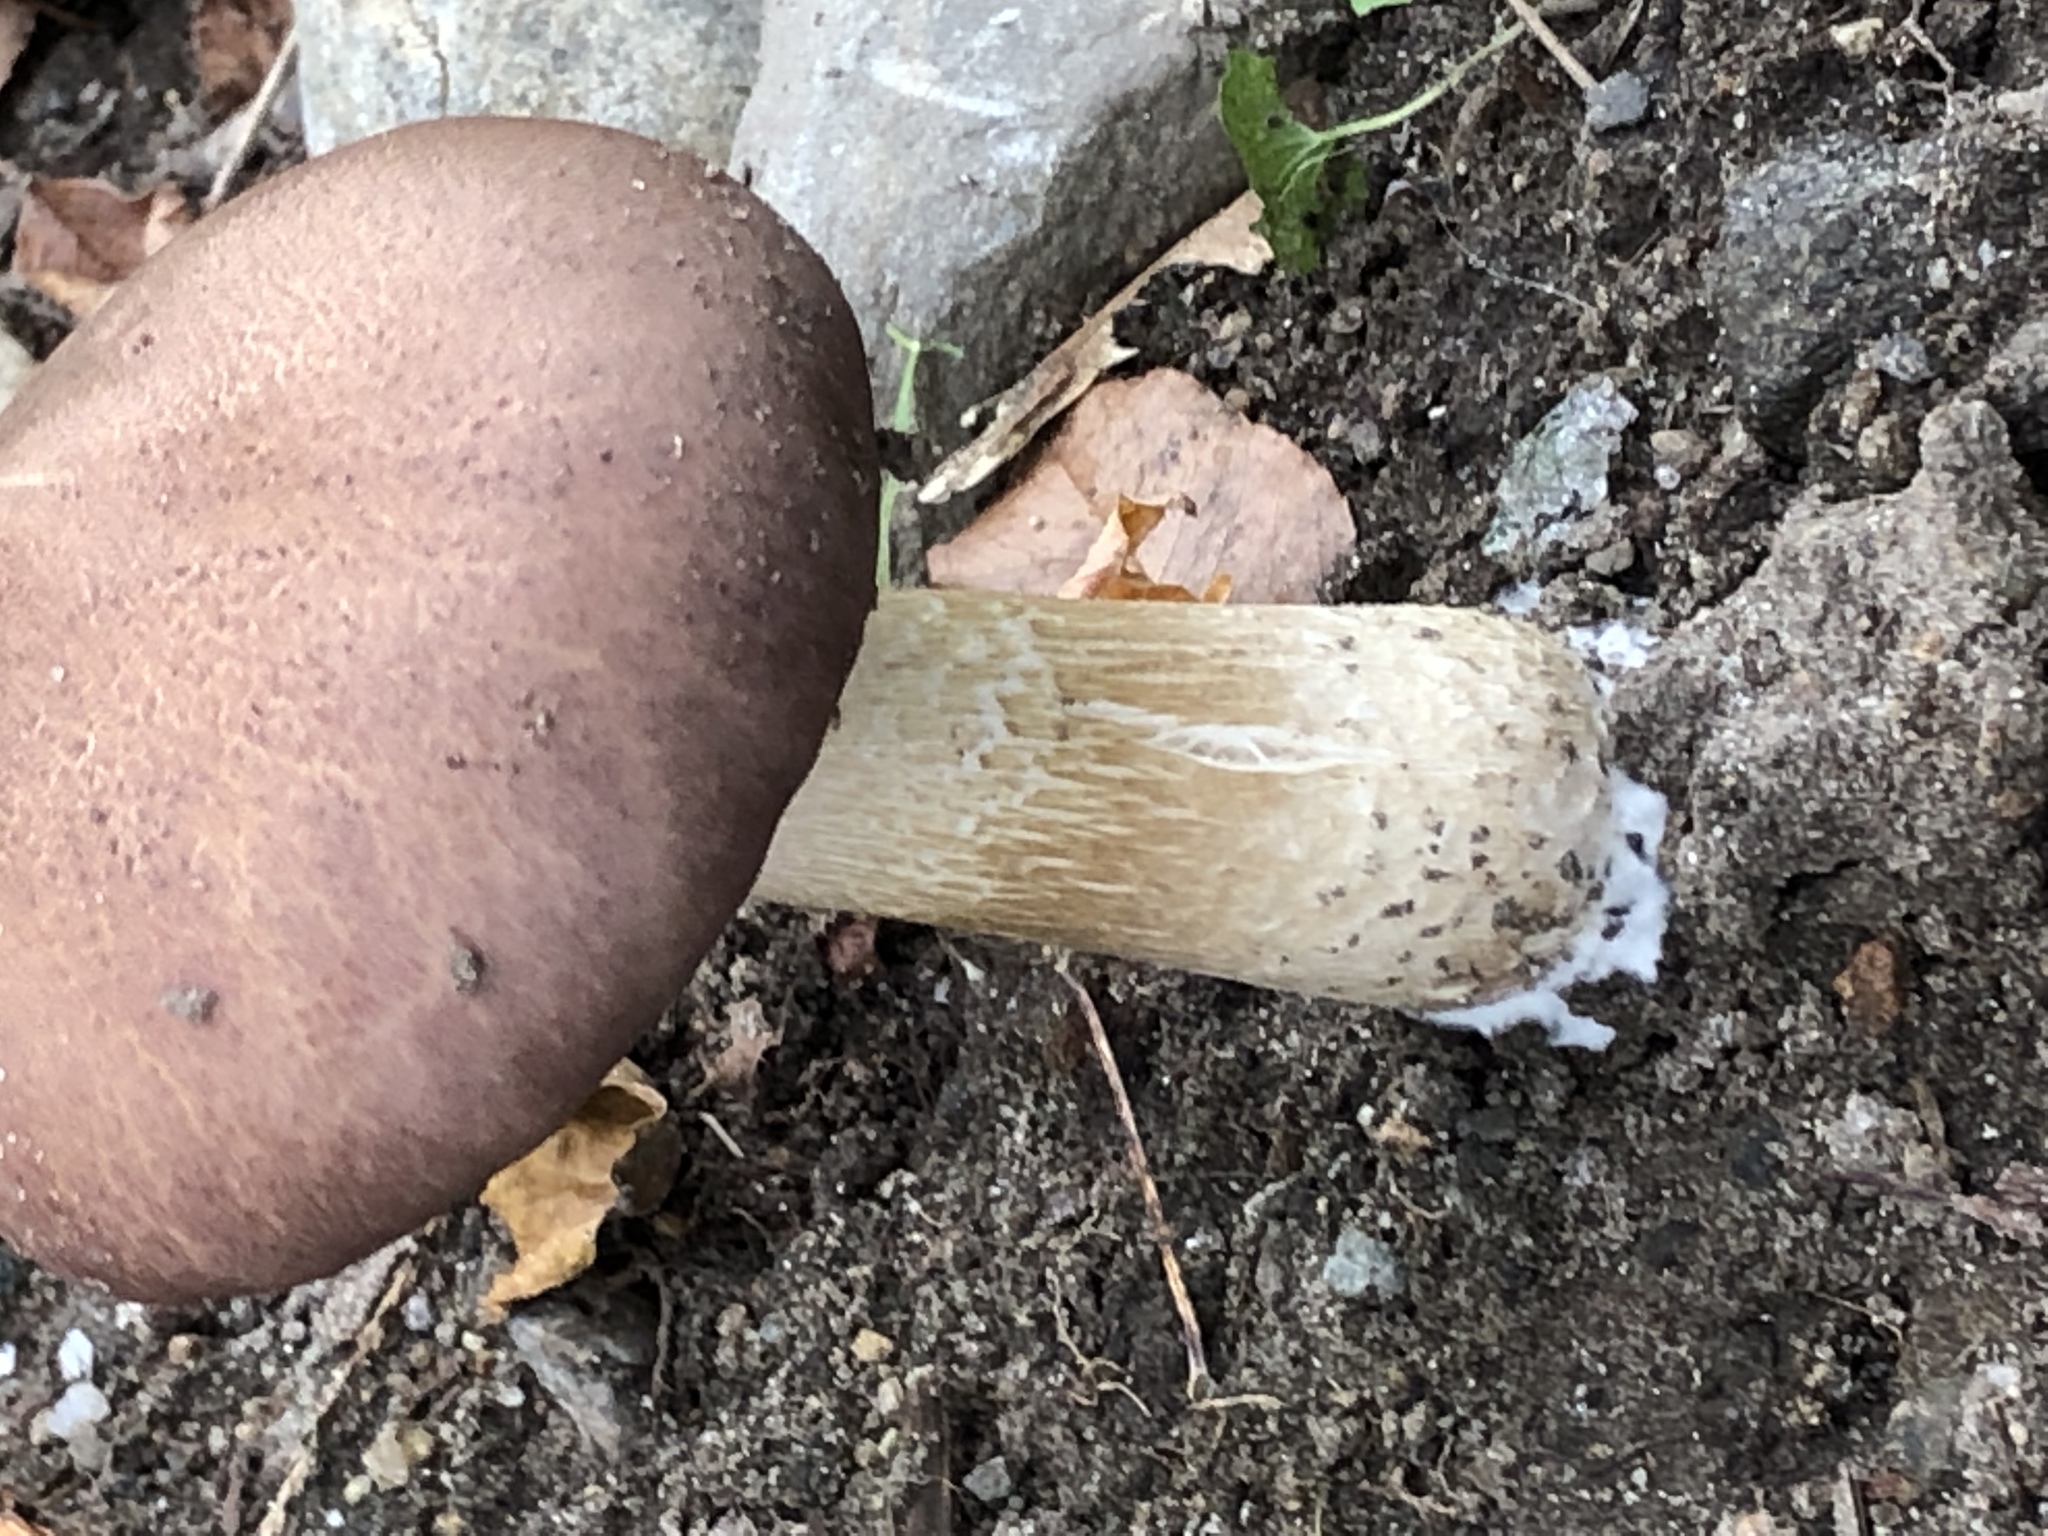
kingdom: Fungi
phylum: Basidiomycota
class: Agaricomycetes
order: Agaricales
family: Strophariaceae
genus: Stropharia
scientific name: Stropharia rugosoannulata
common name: Wine roundhead
